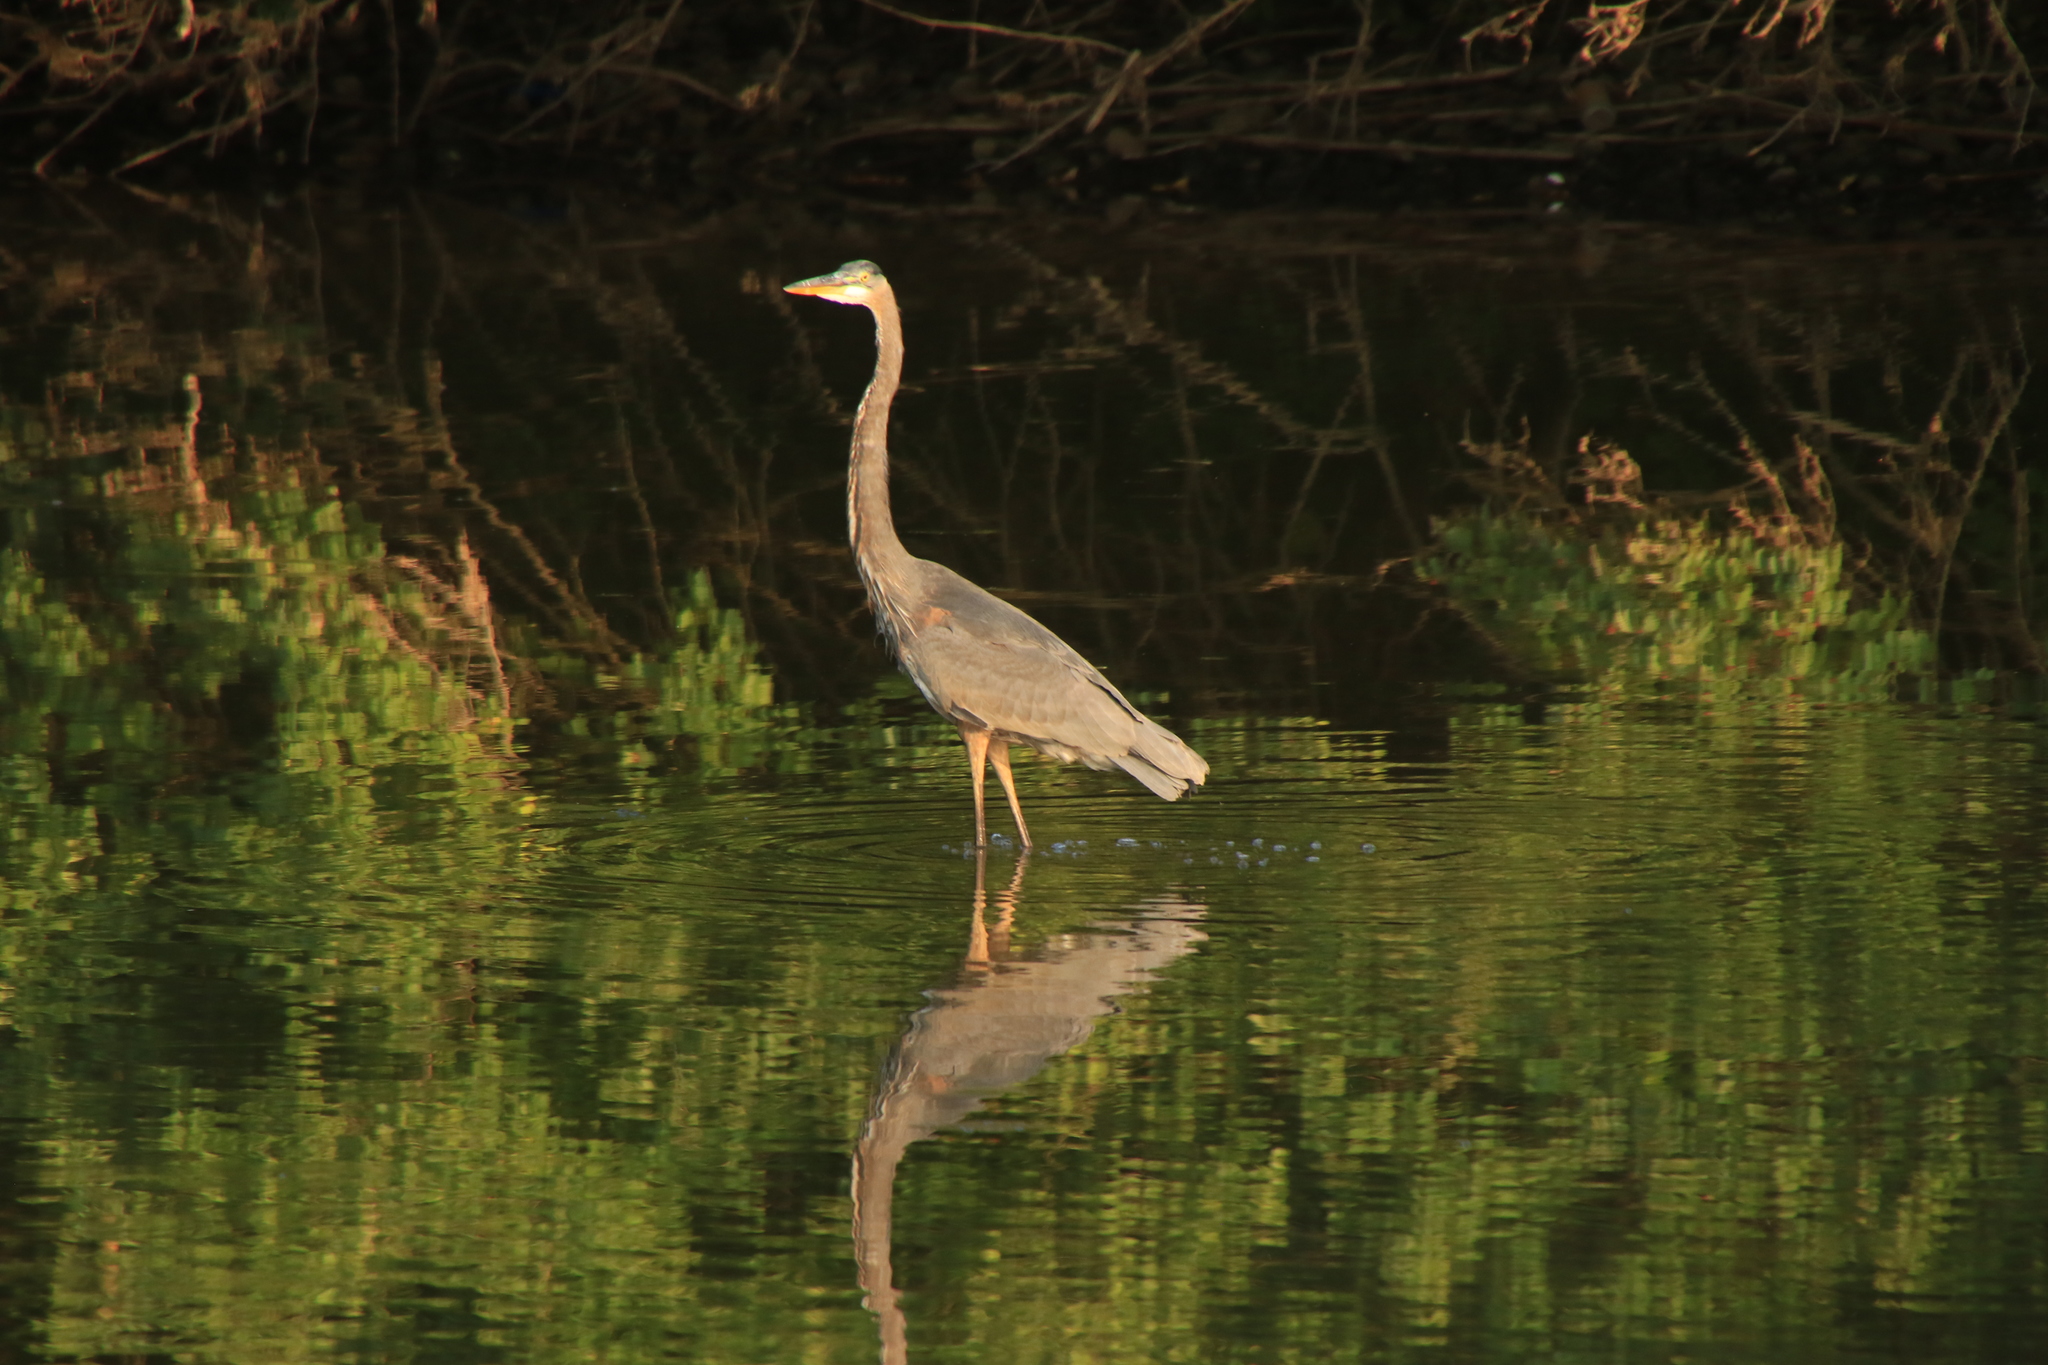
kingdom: Animalia
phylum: Chordata
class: Aves
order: Pelecaniformes
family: Ardeidae
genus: Ardea
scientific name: Ardea herodias
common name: Great blue heron
